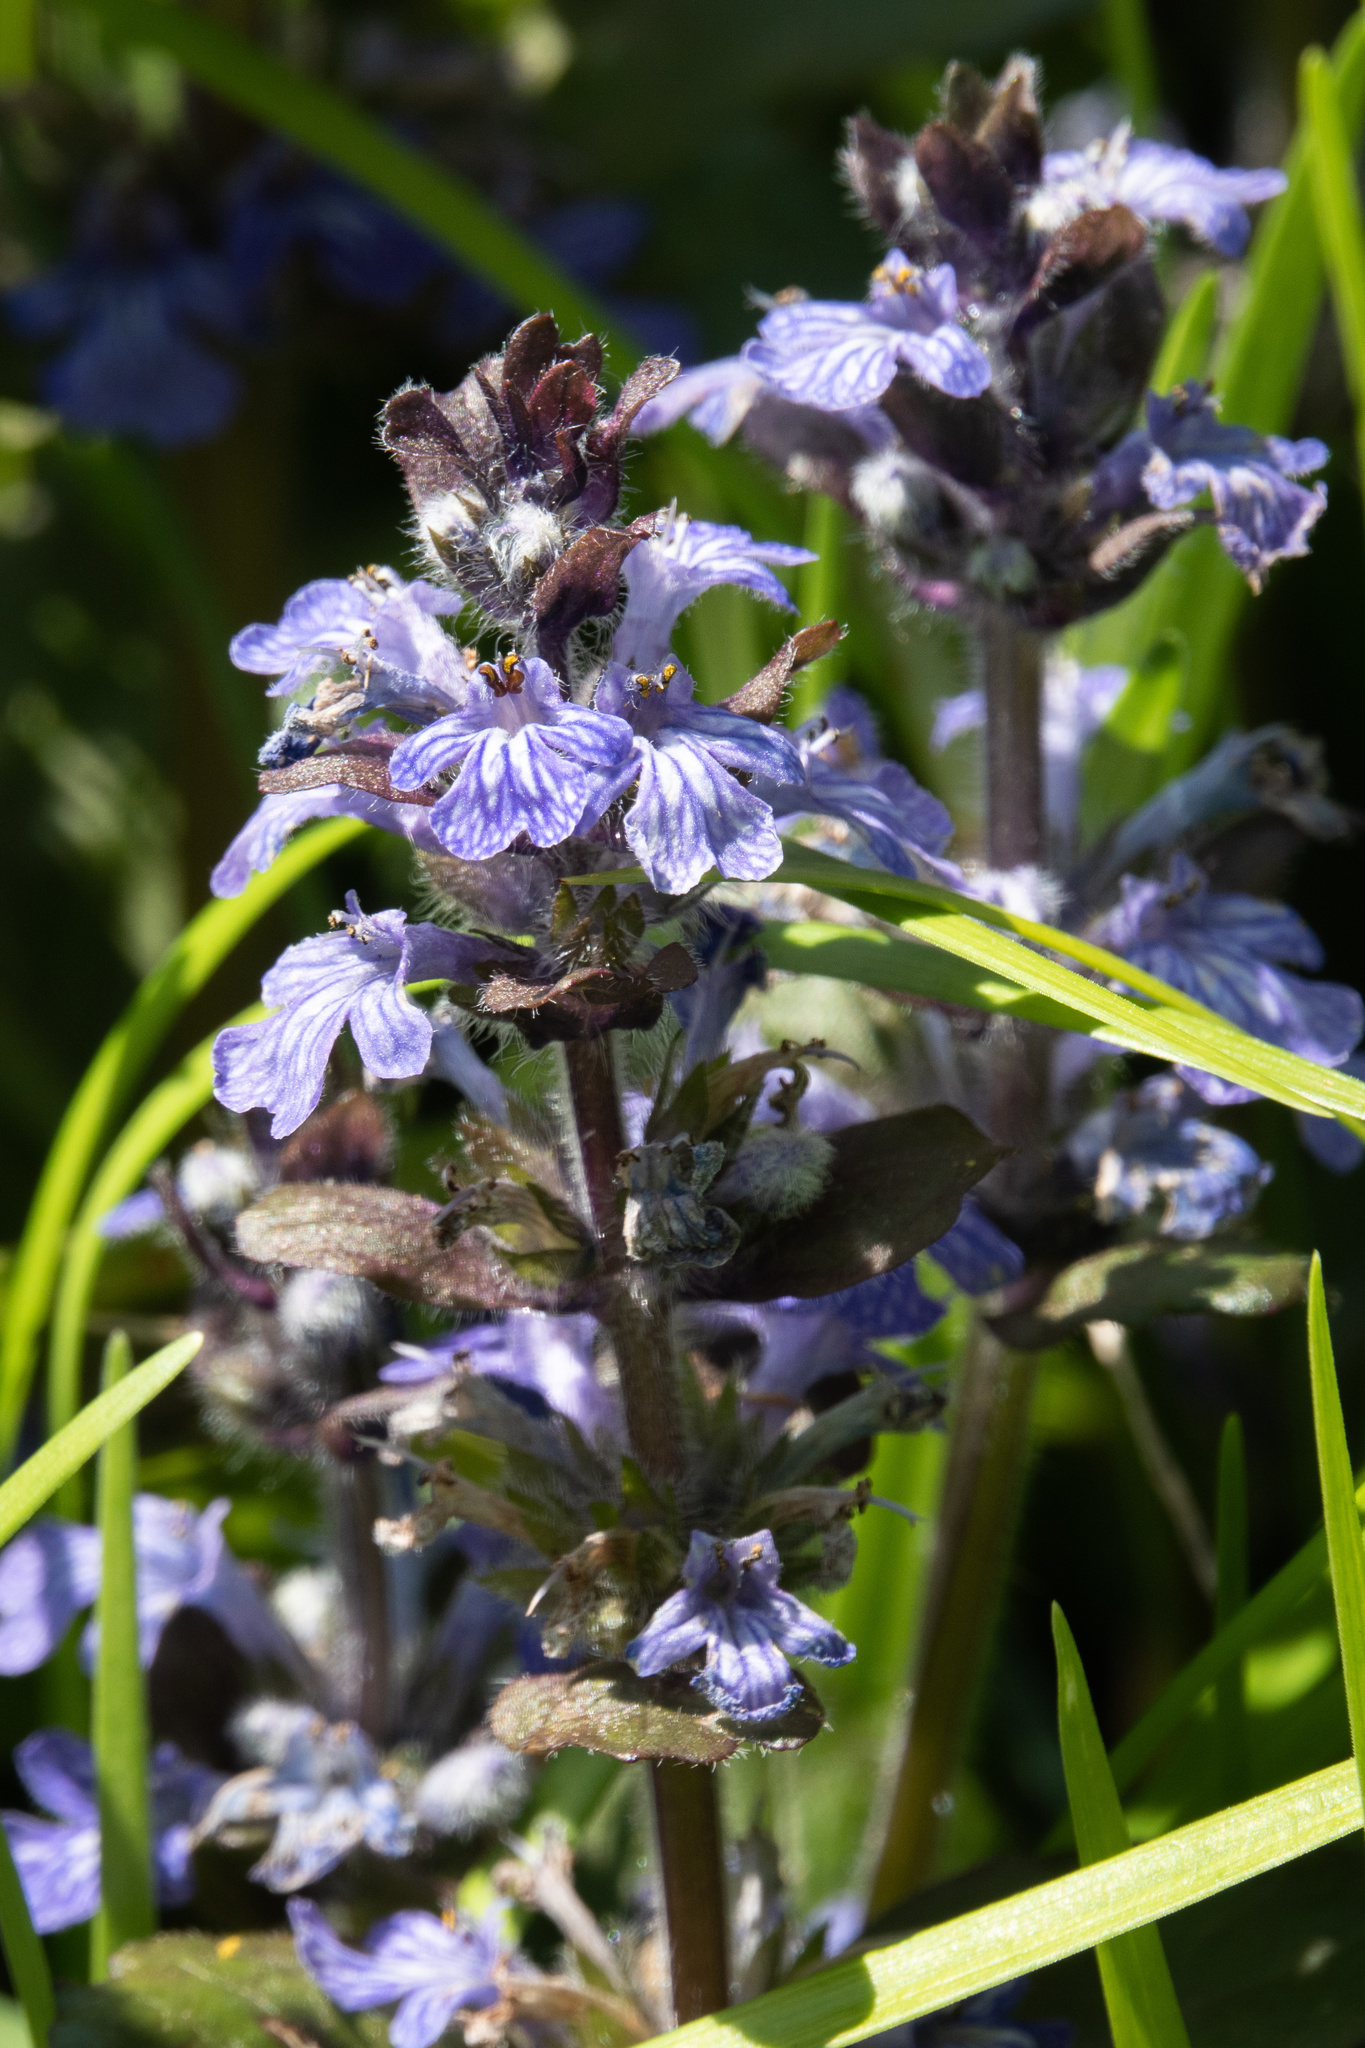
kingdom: Plantae
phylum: Tracheophyta
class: Magnoliopsida
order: Lamiales
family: Lamiaceae
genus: Ajuga
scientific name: Ajuga reptans
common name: Bugle
